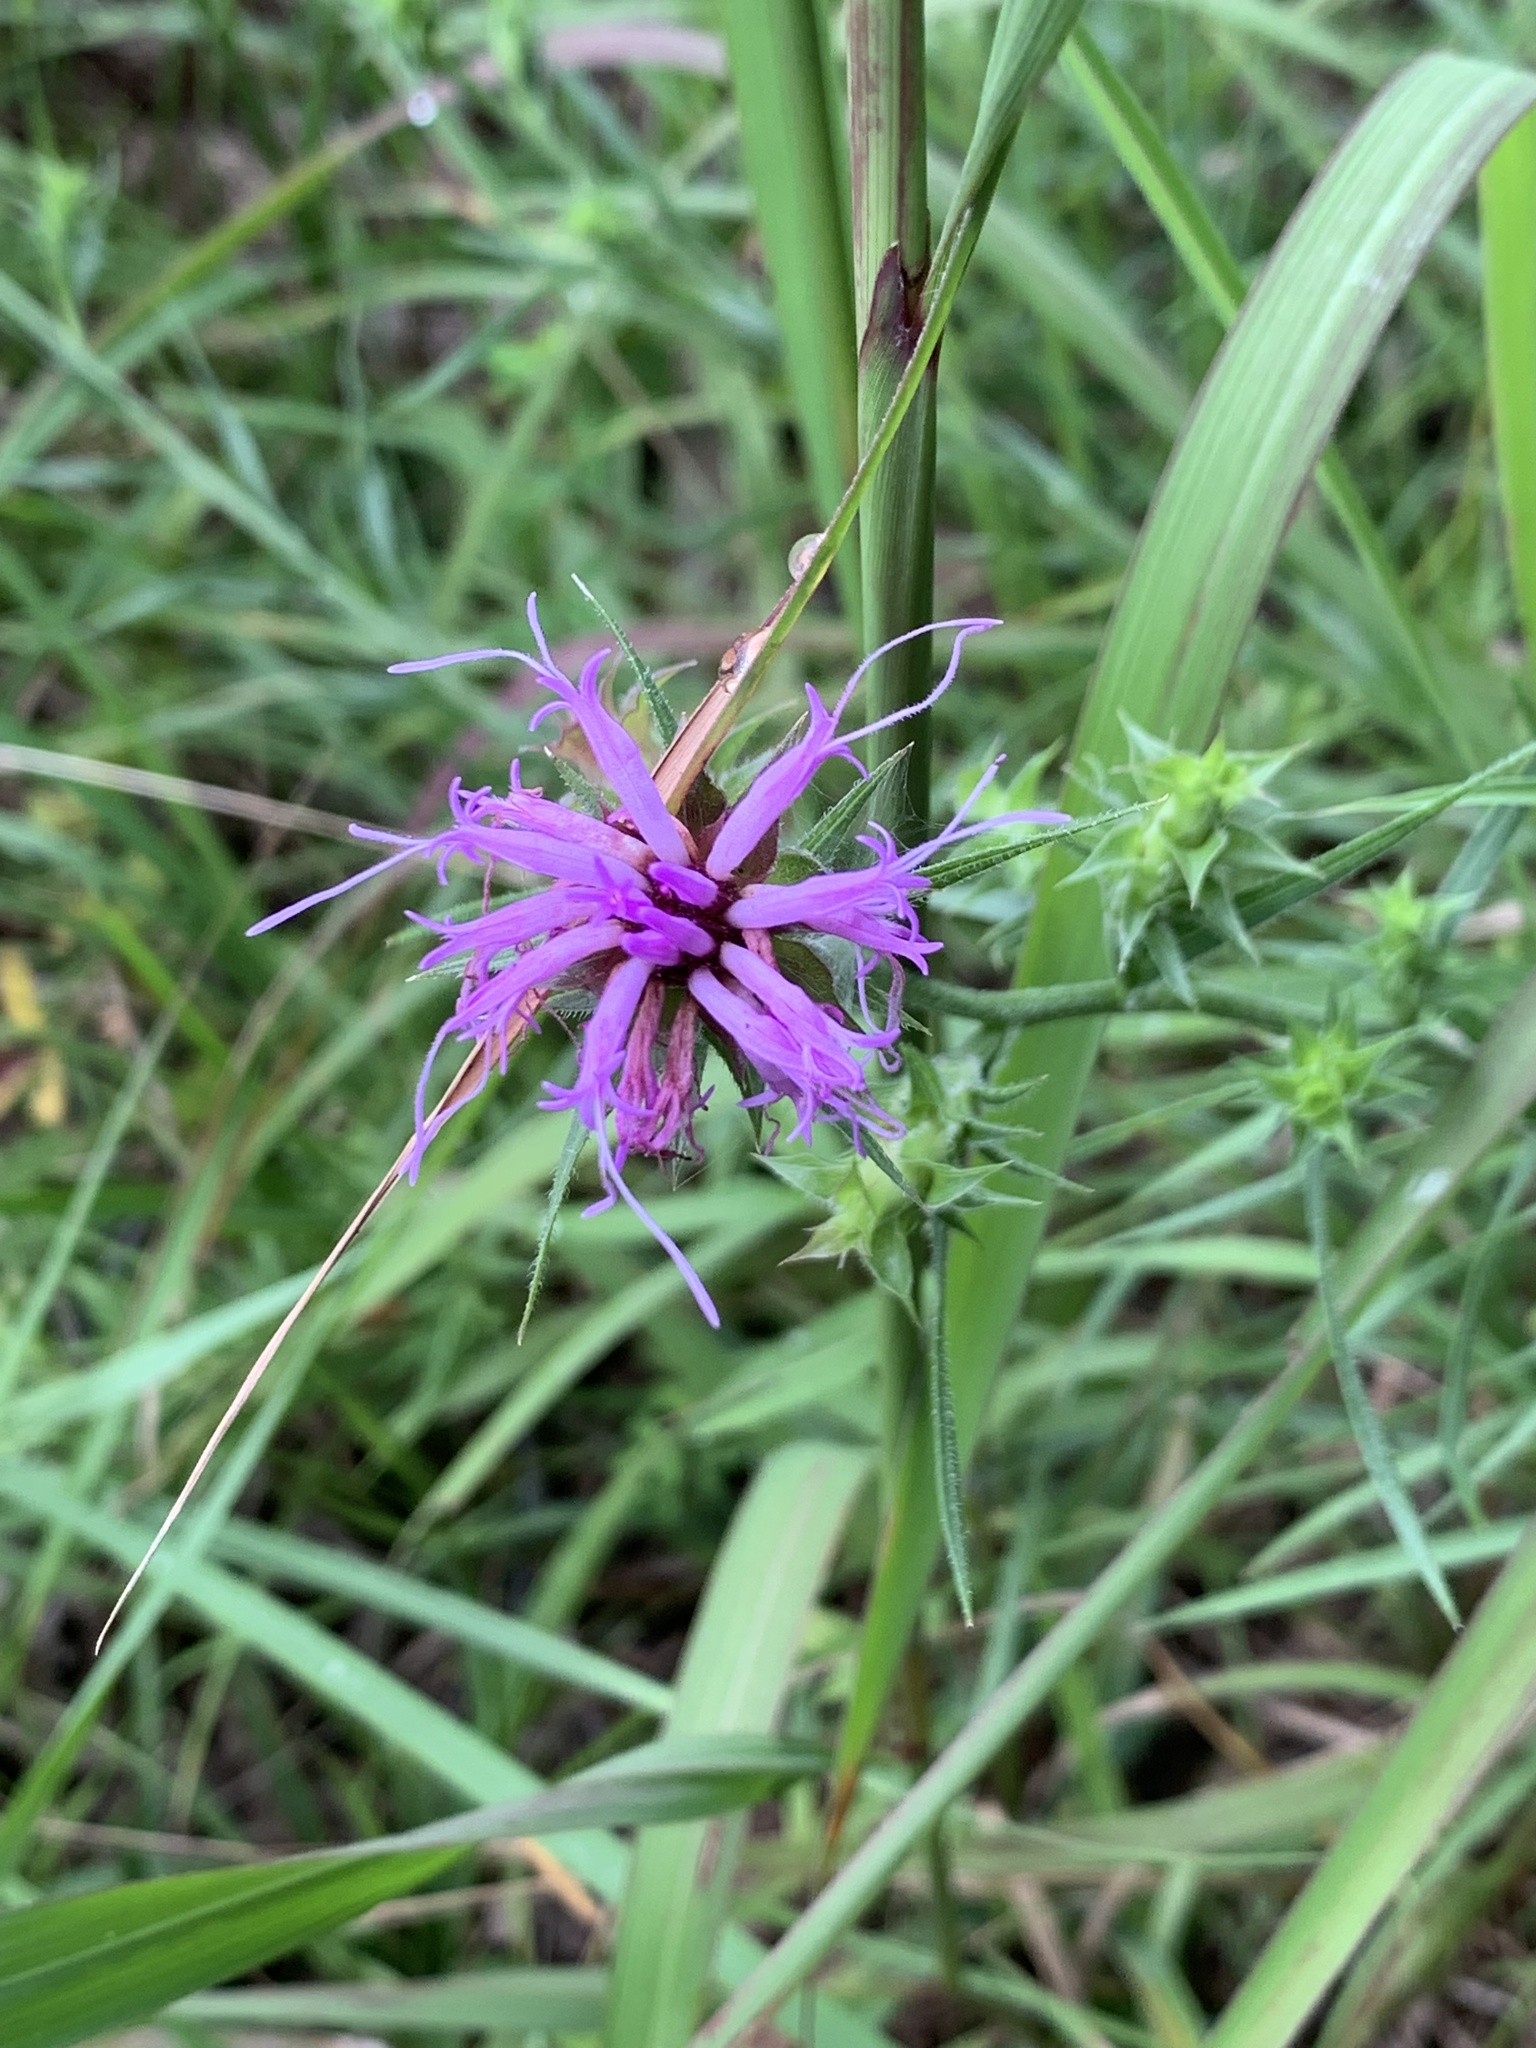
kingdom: Plantae
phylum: Tracheophyta
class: Magnoliopsida
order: Asterales
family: Asteraceae
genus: Liatris
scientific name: Liatris squarrosa
